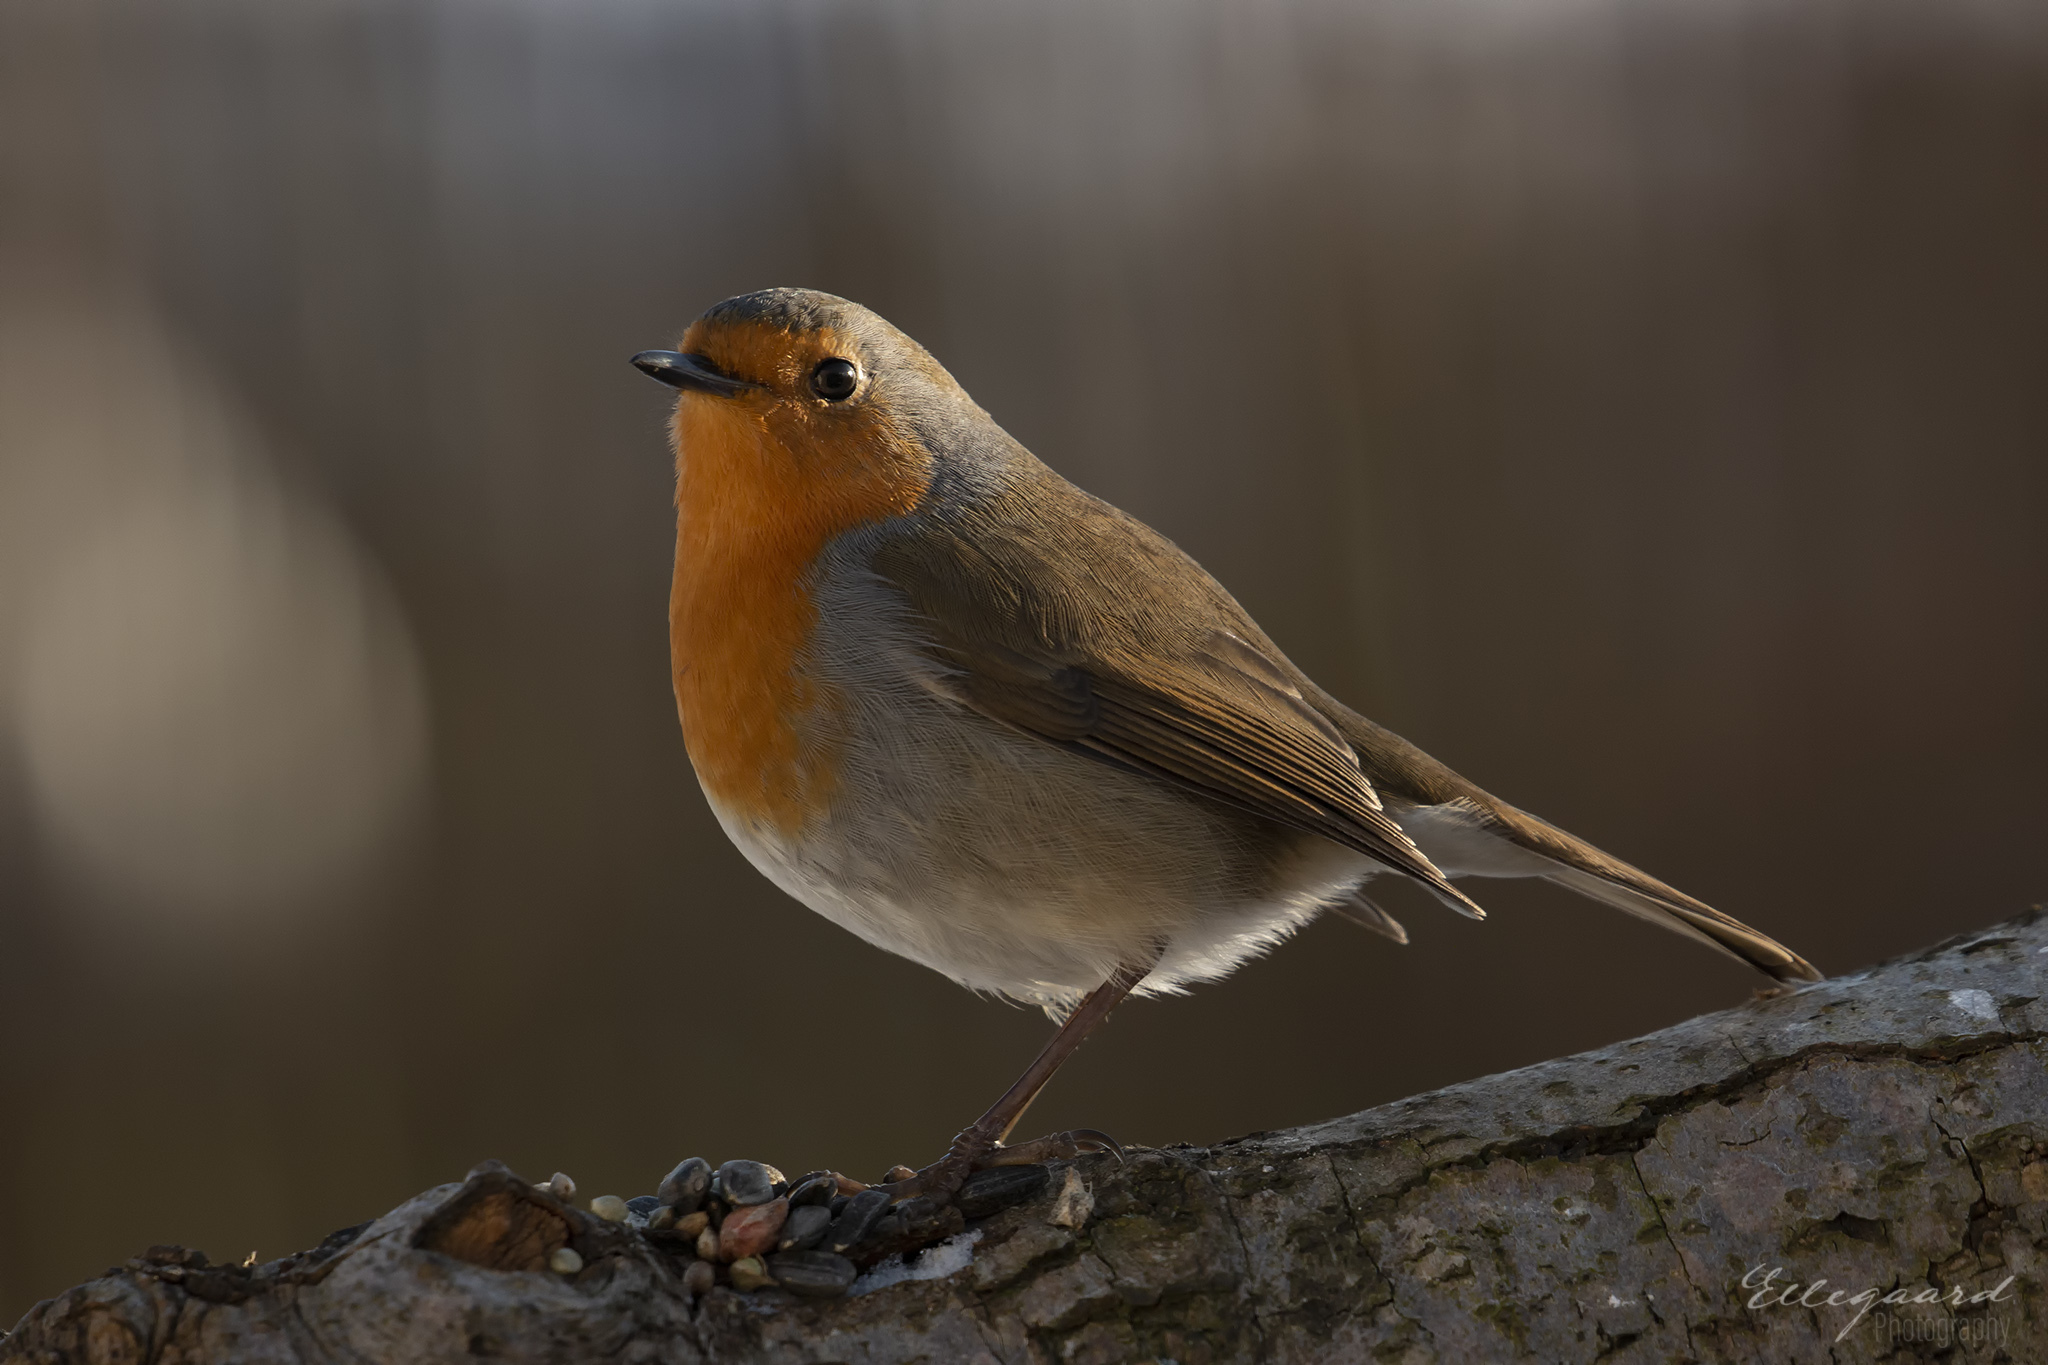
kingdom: Animalia
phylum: Chordata
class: Aves
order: Passeriformes
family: Muscicapidae
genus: Erithacus
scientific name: Erithacus rubecula
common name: European robin
